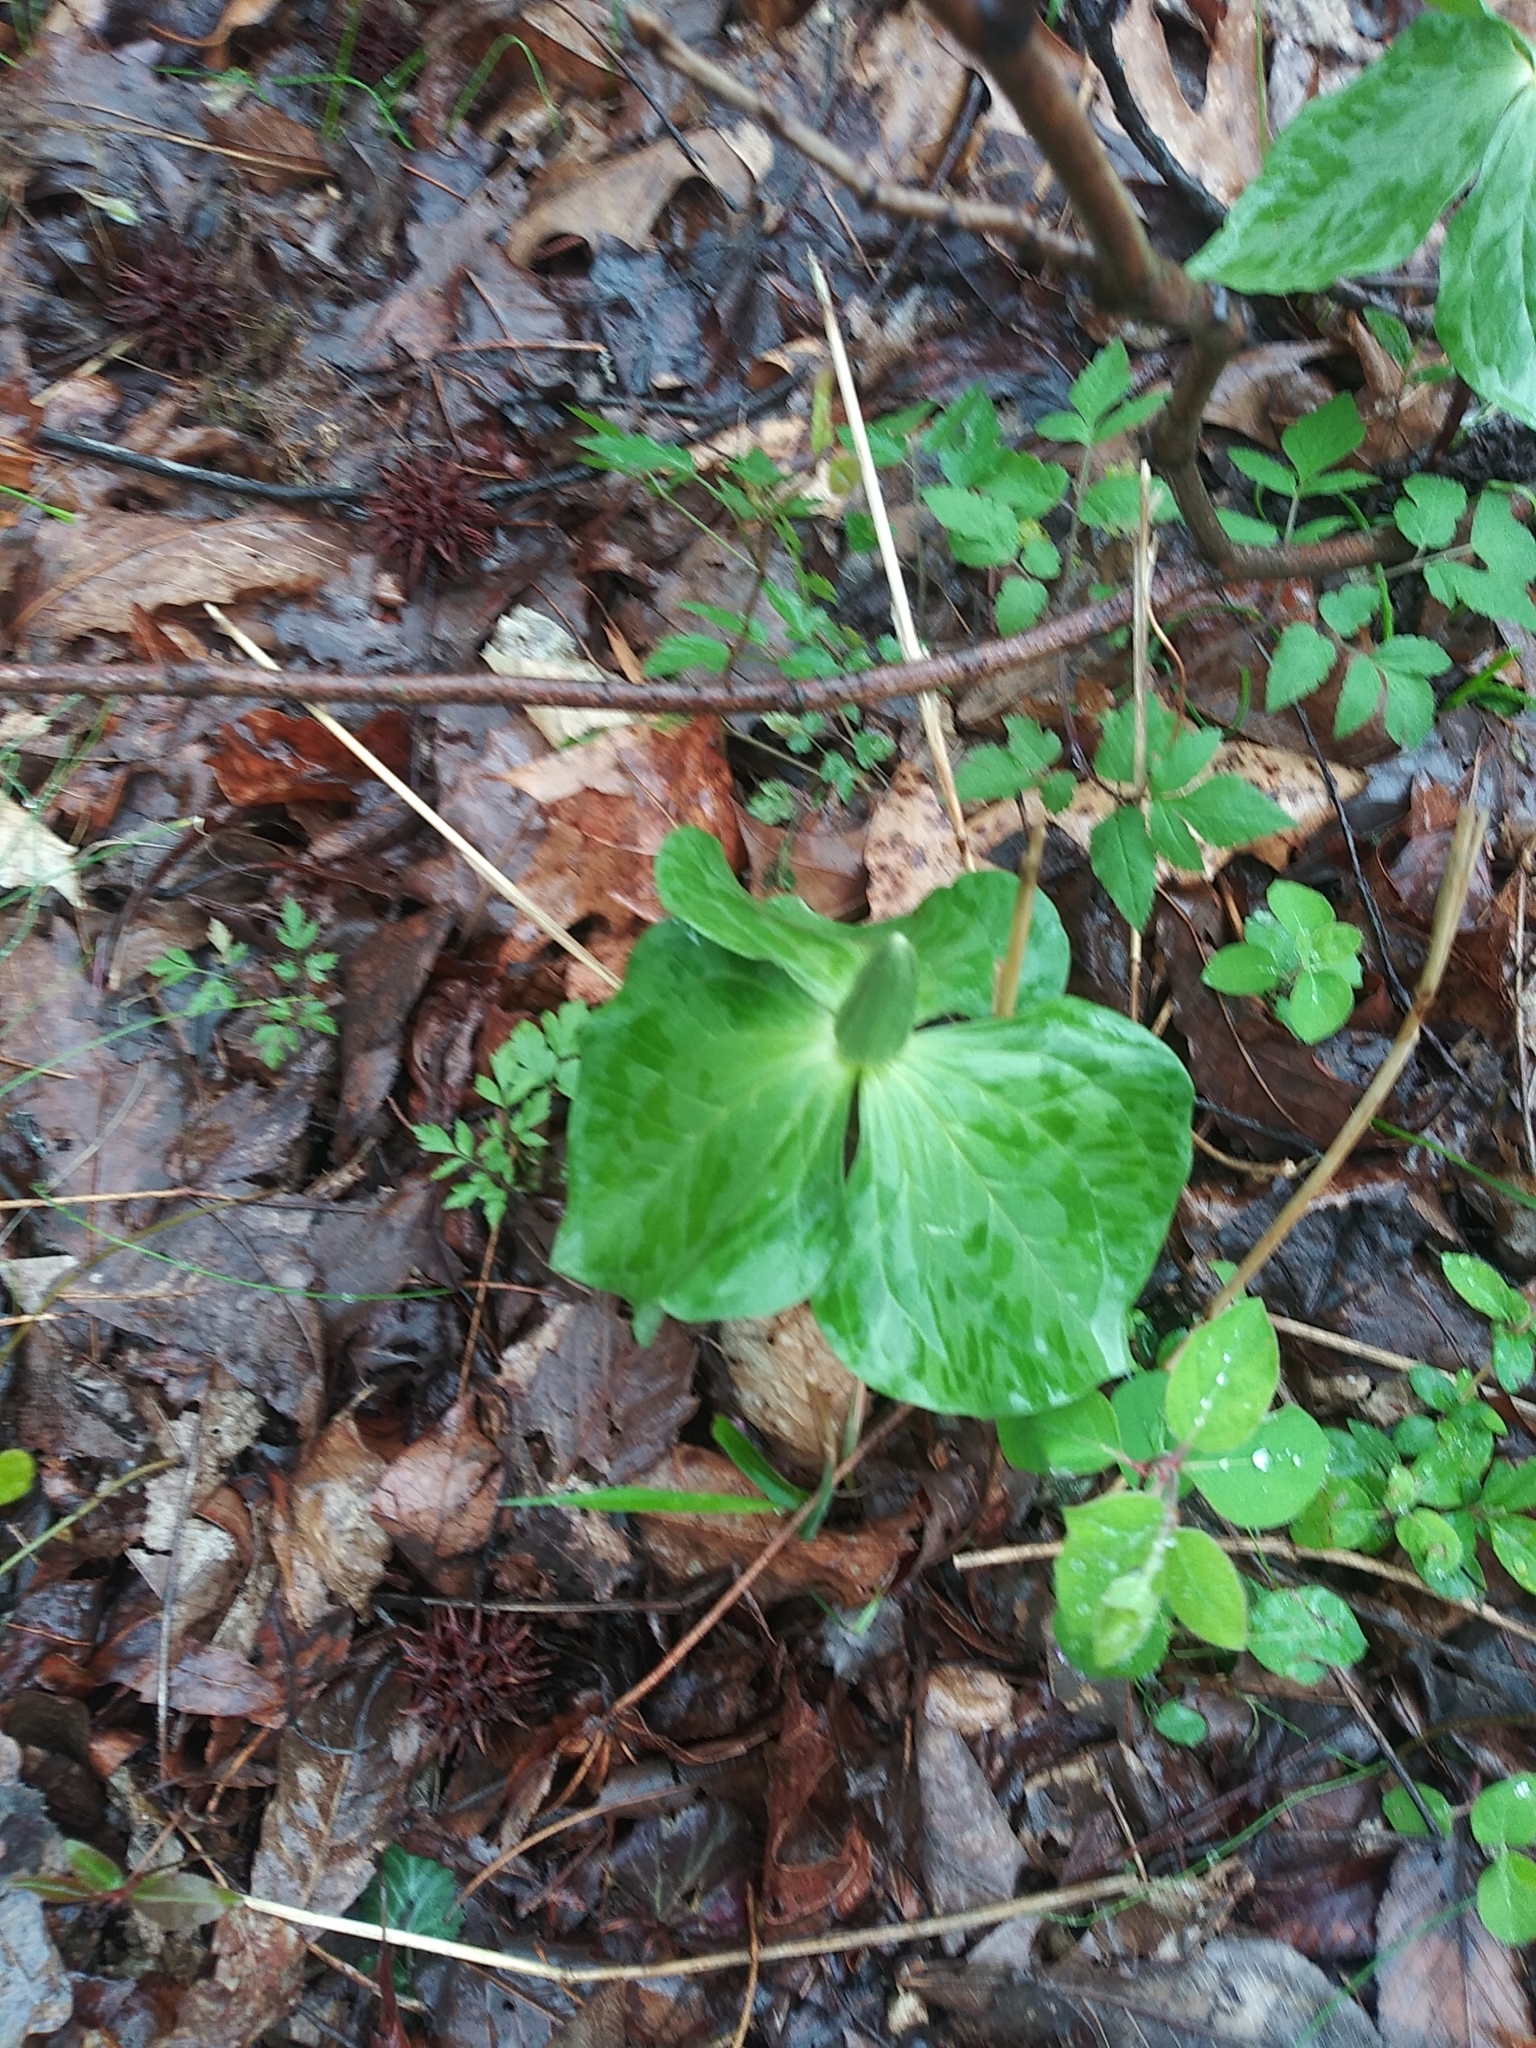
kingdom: Plantae
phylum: Tracheophyta
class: Liliopsida
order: Liliales
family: Melanthiaceae
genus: Trillium
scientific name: Trillium cuneatum
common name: Cuneate trillium
